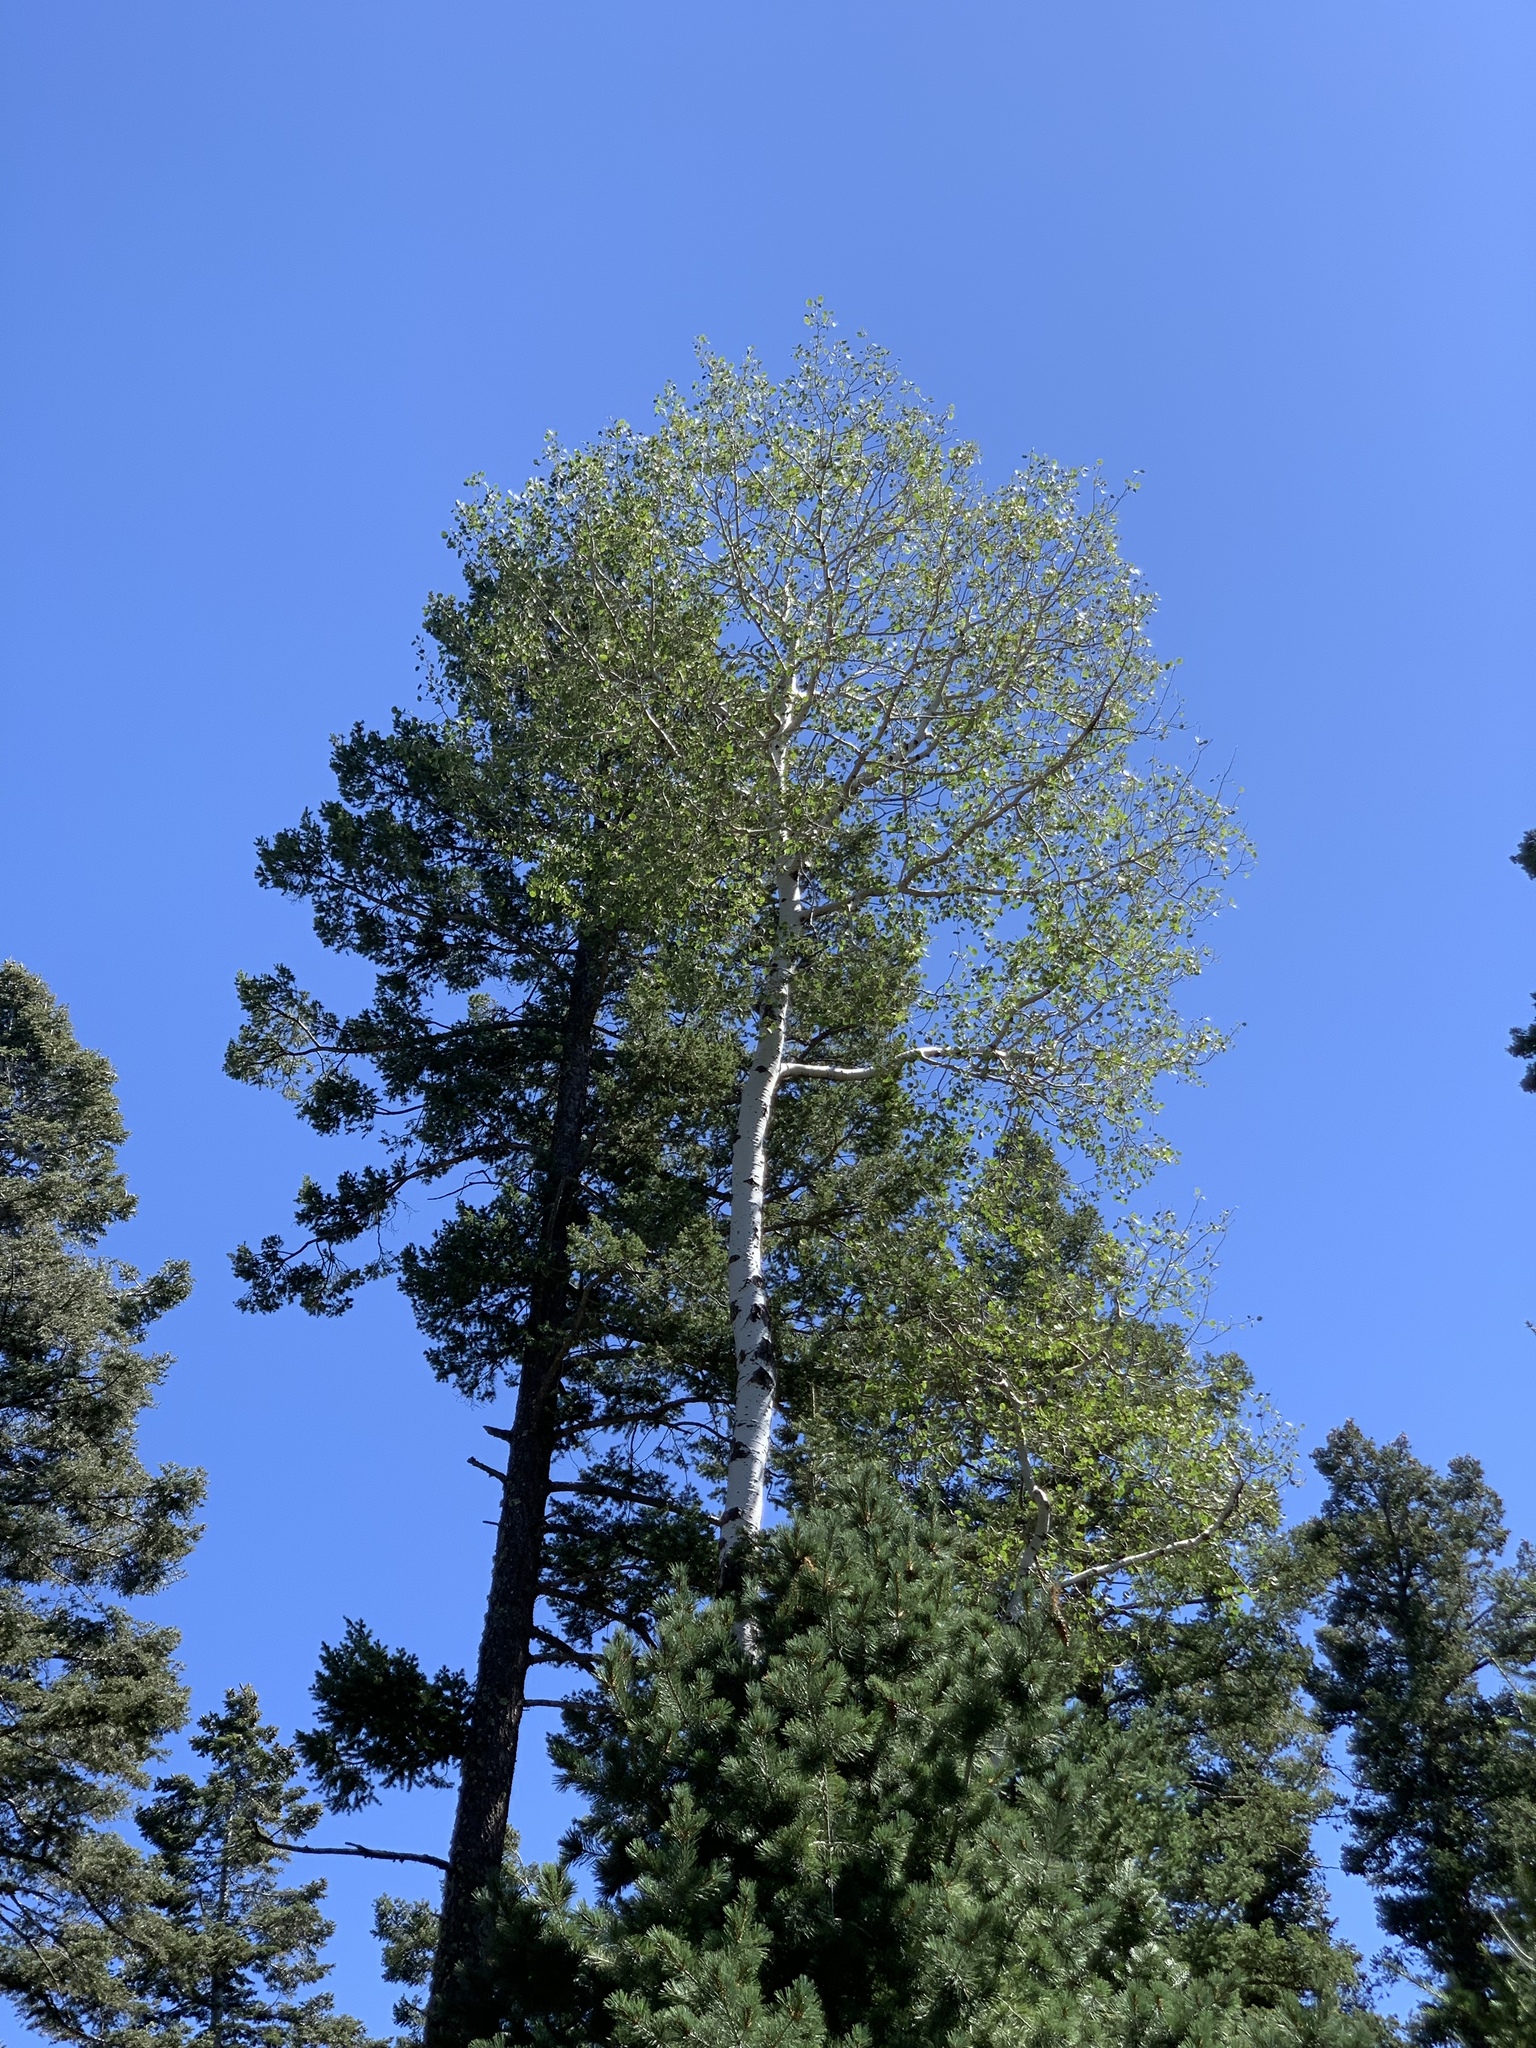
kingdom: Plantae
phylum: Tracheophyta
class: Magnoliopsida
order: Malpighiales
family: Salicaceae
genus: Populus
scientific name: Populus tremuloides
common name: Quaking aspen
